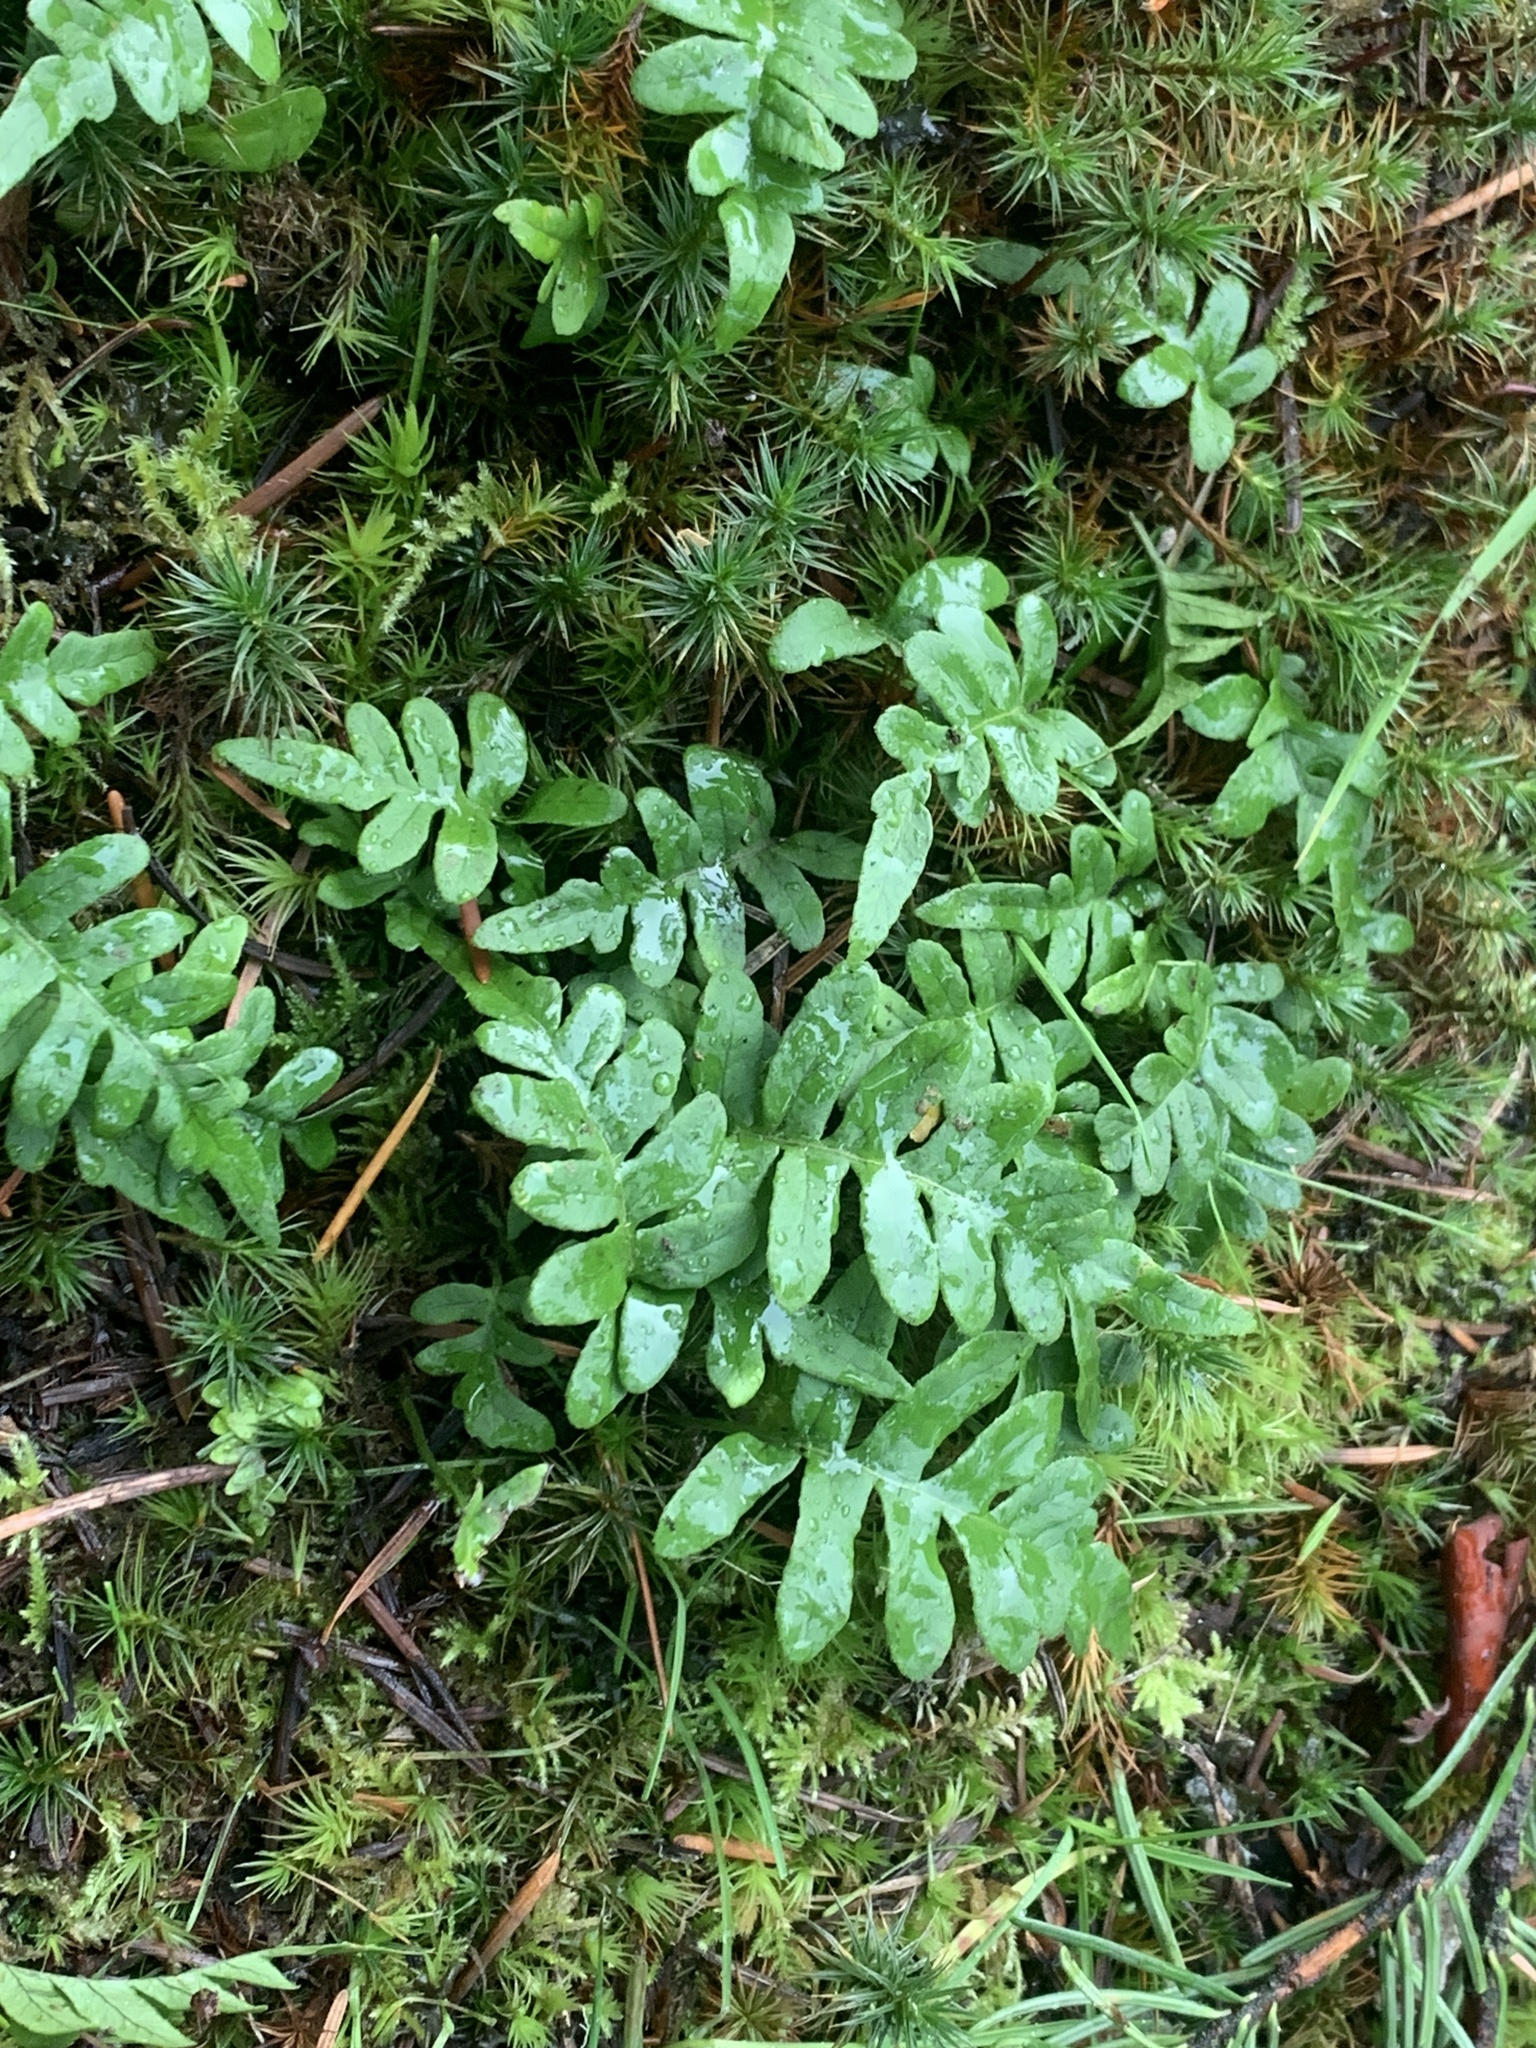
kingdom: Plantae
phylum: Tracheophyta
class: Polypodiopsida
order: Polypodiales
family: Polypodiaceae
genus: Polypodium
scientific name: Polypodium glycyrrhiza
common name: Licorice fern
